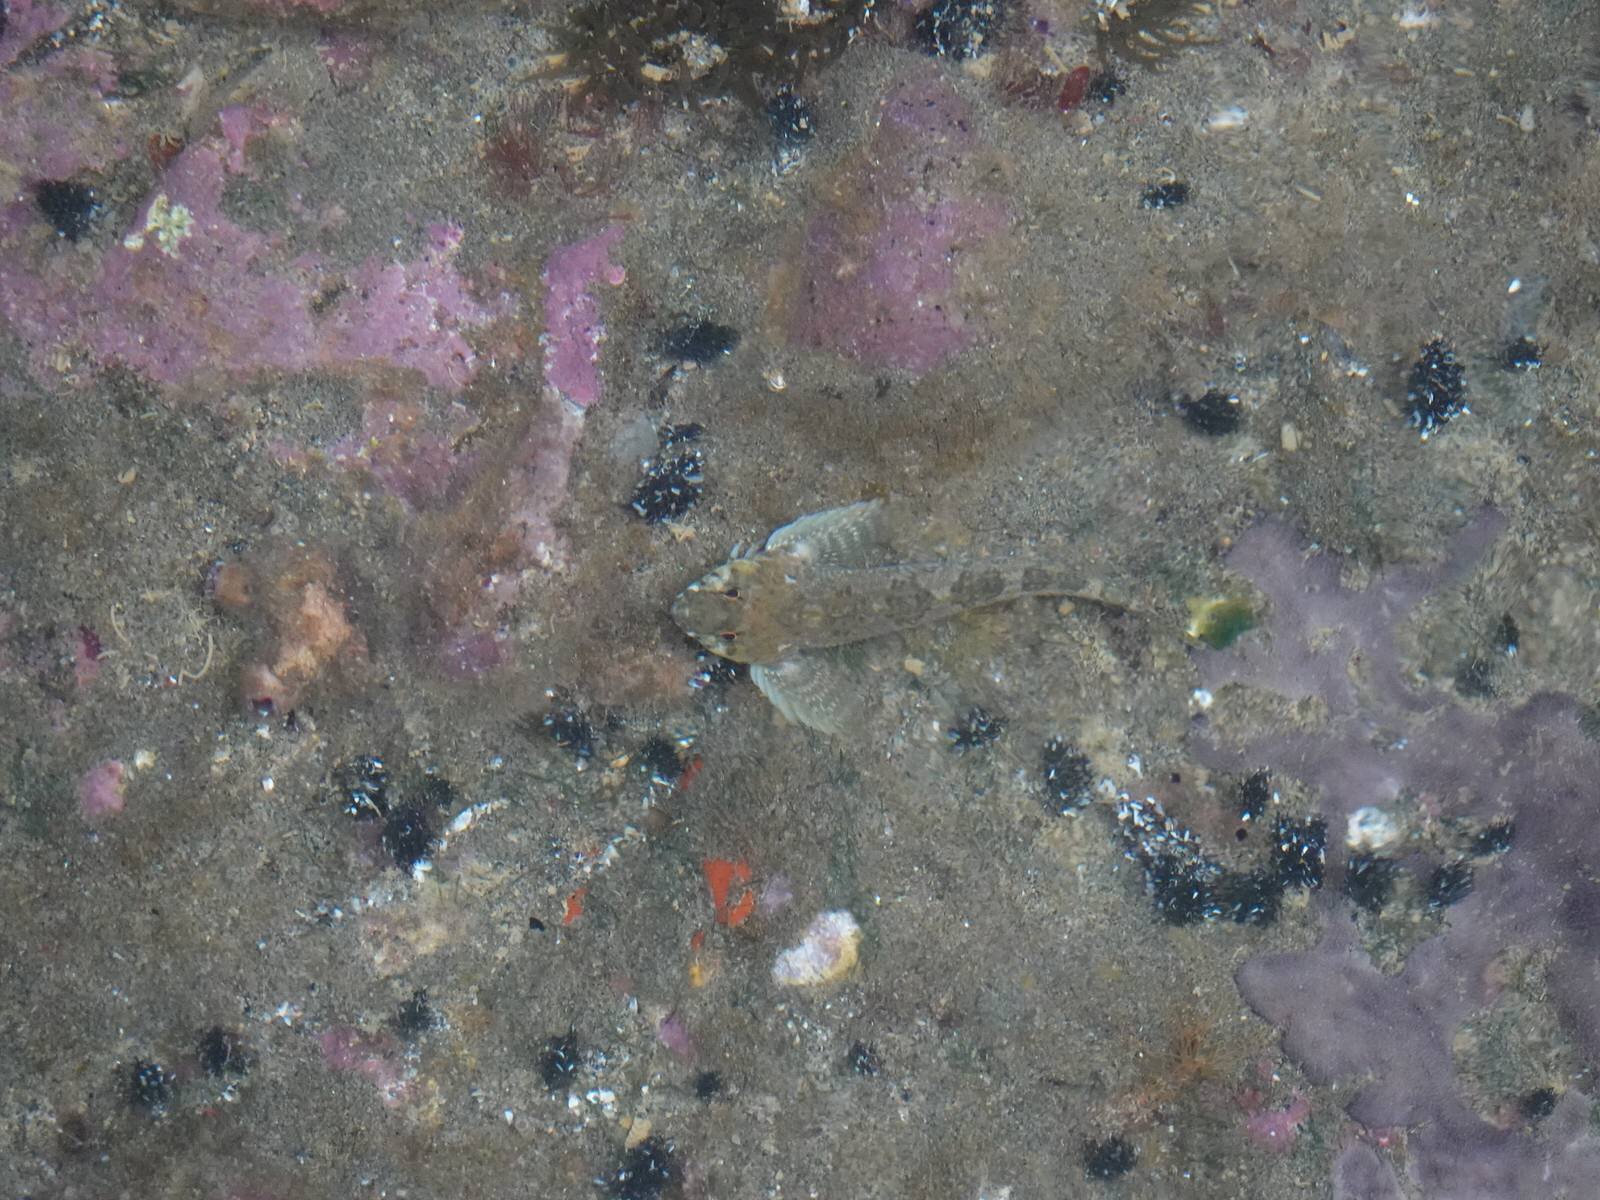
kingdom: Animalia
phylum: Chordata
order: Perciformes
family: Tripterygiidae
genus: Bellapiscis
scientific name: Bellapiscis medius
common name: Twister
